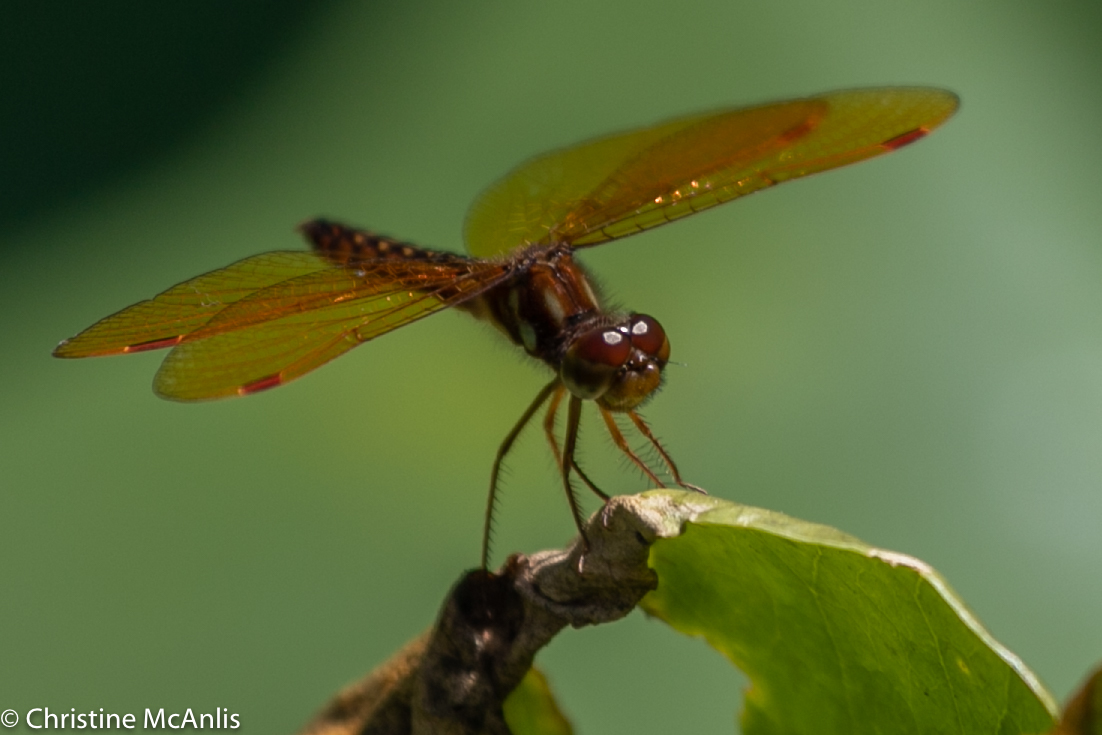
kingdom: Animalia
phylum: Arthropoda
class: Insecta
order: Odonata
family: Libellulidae
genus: Perithemis
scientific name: Perithemis tenera
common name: Eastern amberwing
